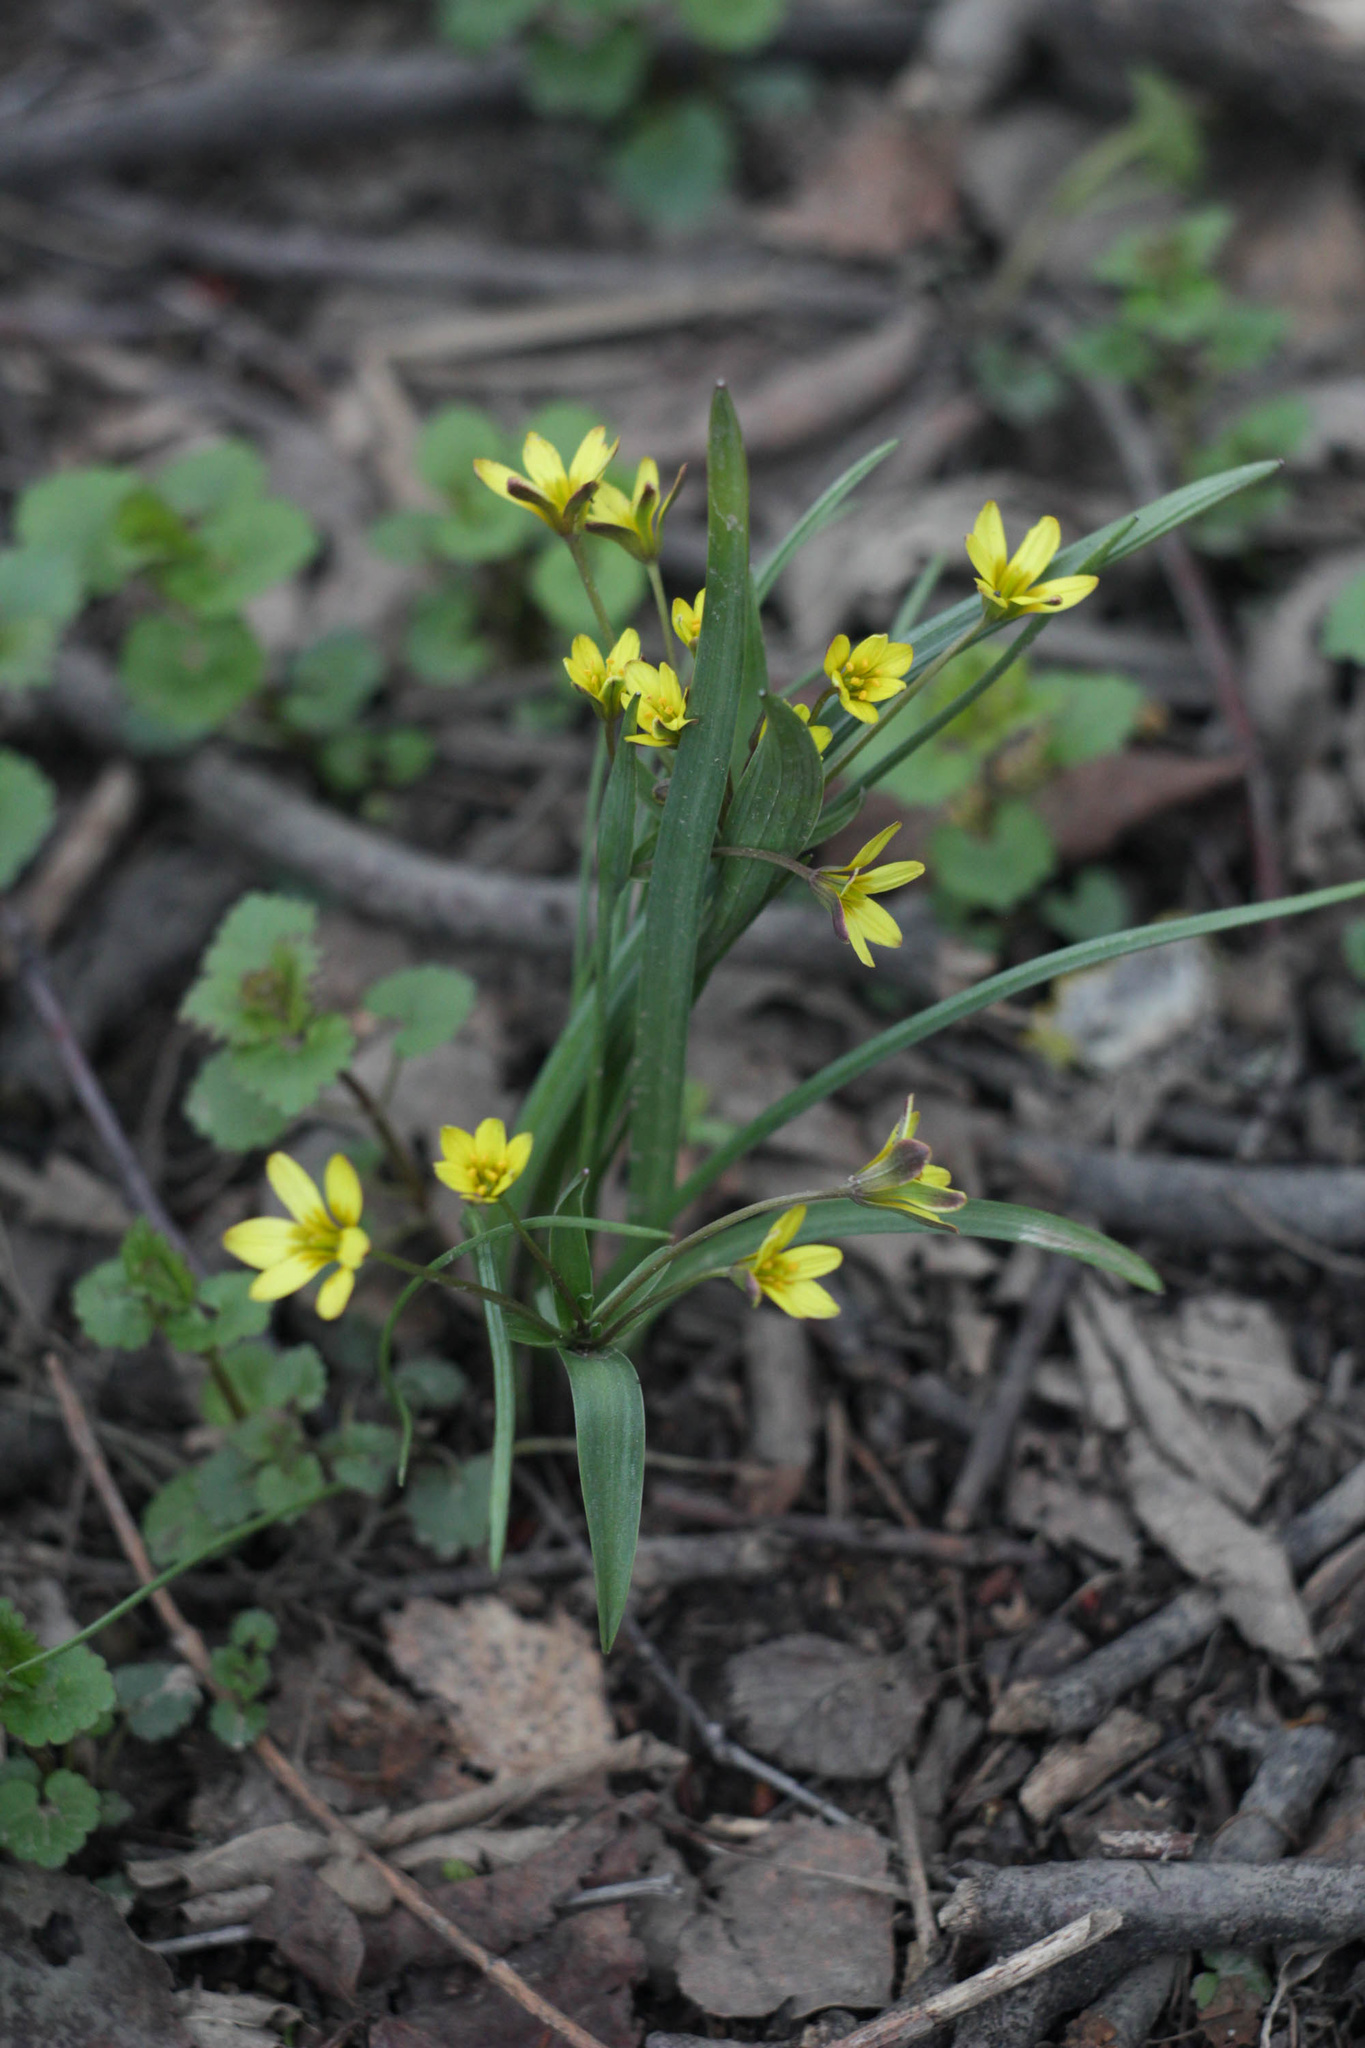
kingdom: Plantae
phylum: Tracheophyta
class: Liliopsida
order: Liliales
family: Liliaceae
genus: Gagea
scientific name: Gagea fragifera
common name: Lily
